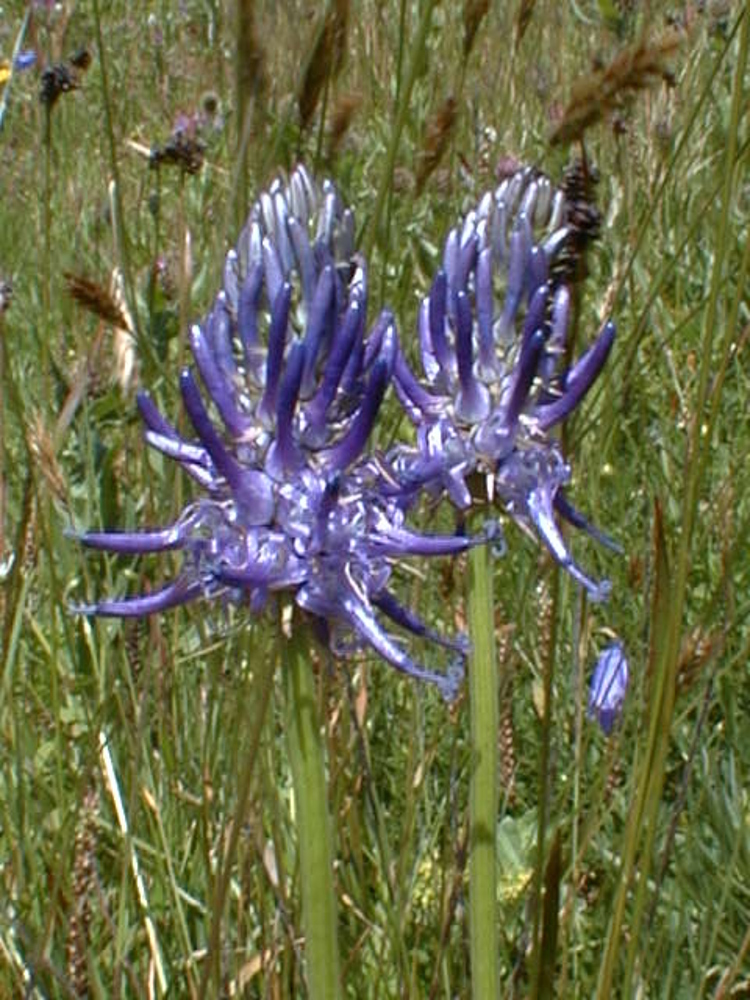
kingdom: Plantae
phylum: Tracheophyta
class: Magnoliopsida
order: Asterales
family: Campanulaceae
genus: Phyteuma
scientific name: Phyteuma betonicifolium
